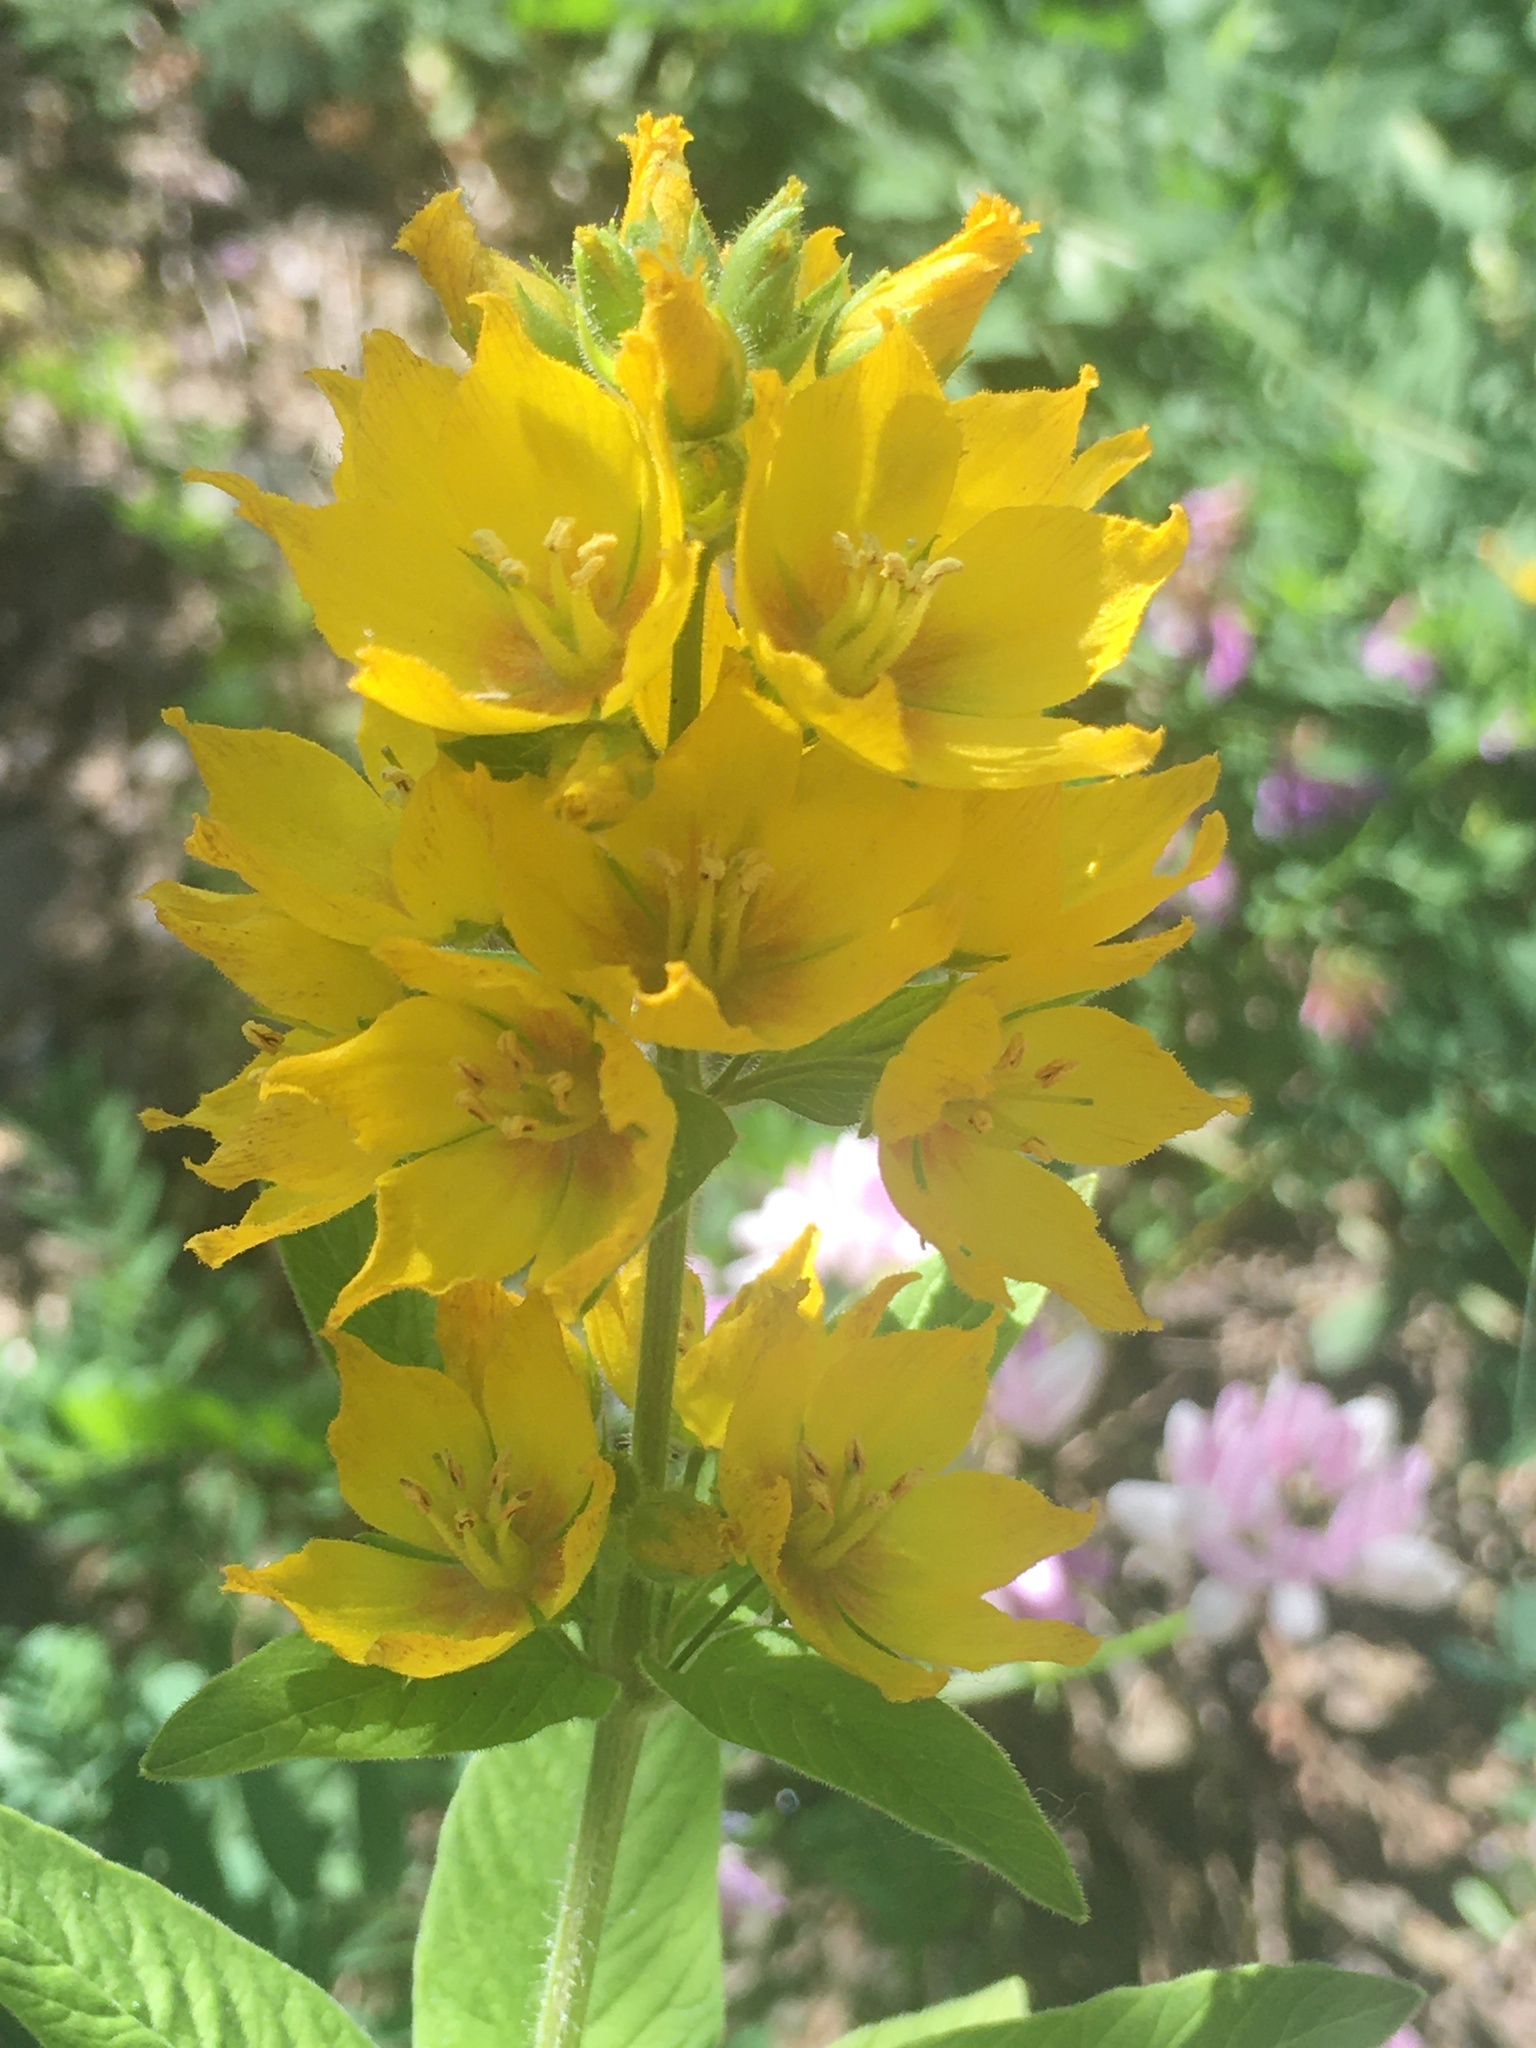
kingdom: Plantae
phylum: Tracheophyta
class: Magnoliopsida
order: Ericales
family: Primulaceae
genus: Lysimachia
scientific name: Lysimachia punctata
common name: Dotted loosestrife
